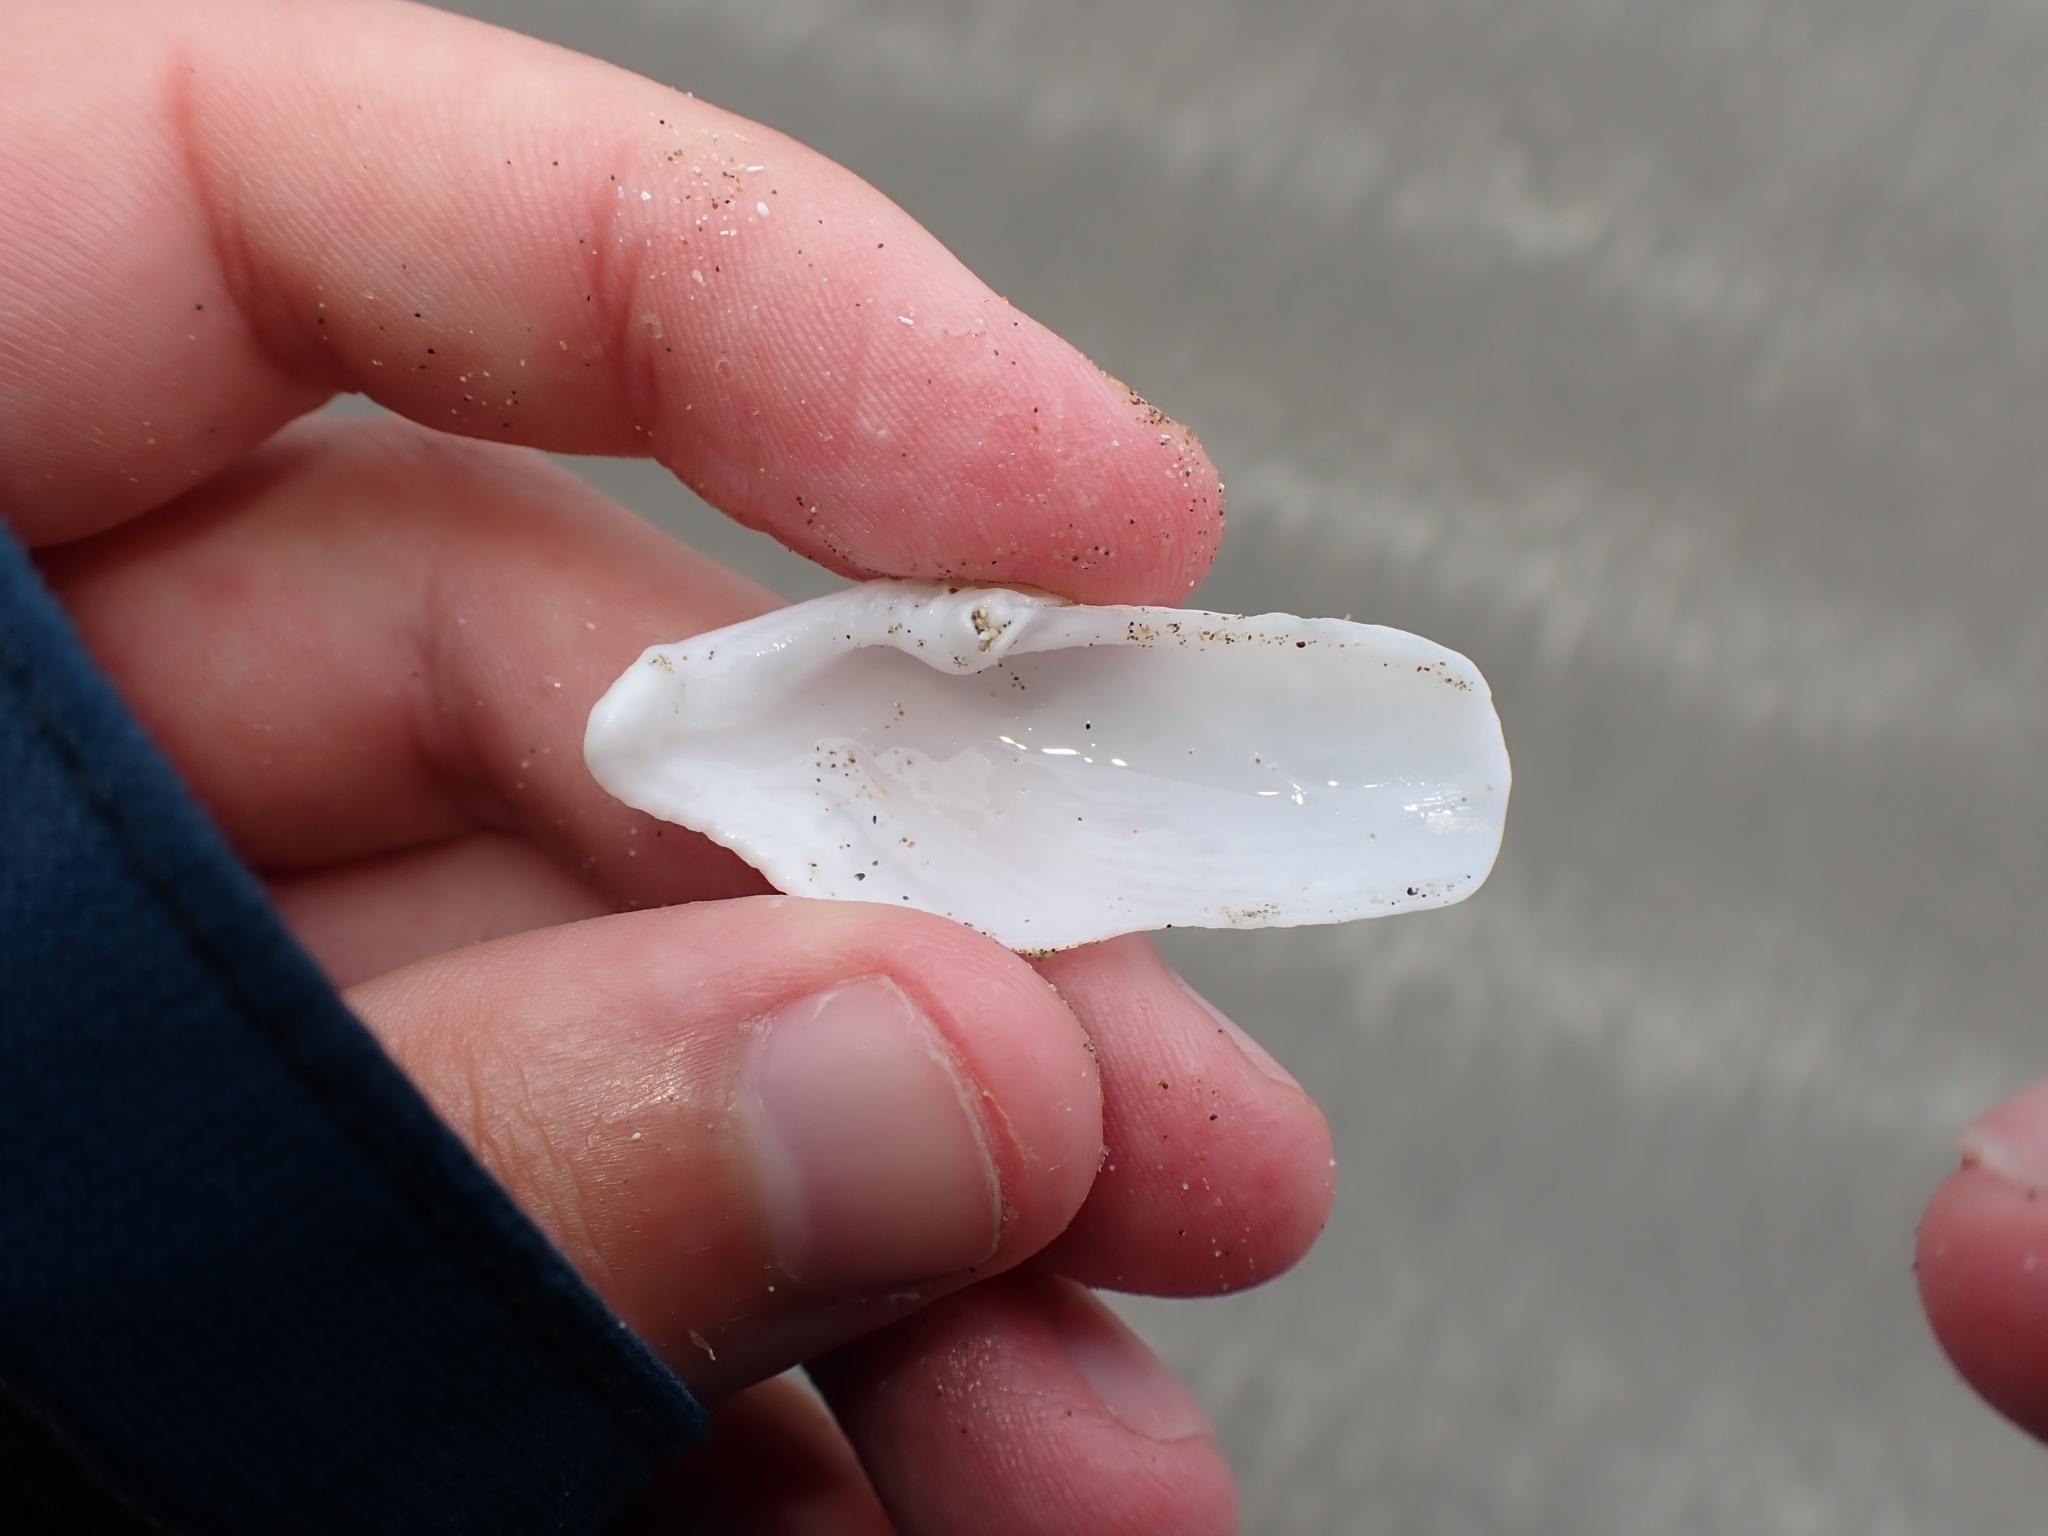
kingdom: Animalia
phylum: Mollusca
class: Bivalvia
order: Myida
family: Pholadidae
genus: Barnea
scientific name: Barnea similis
